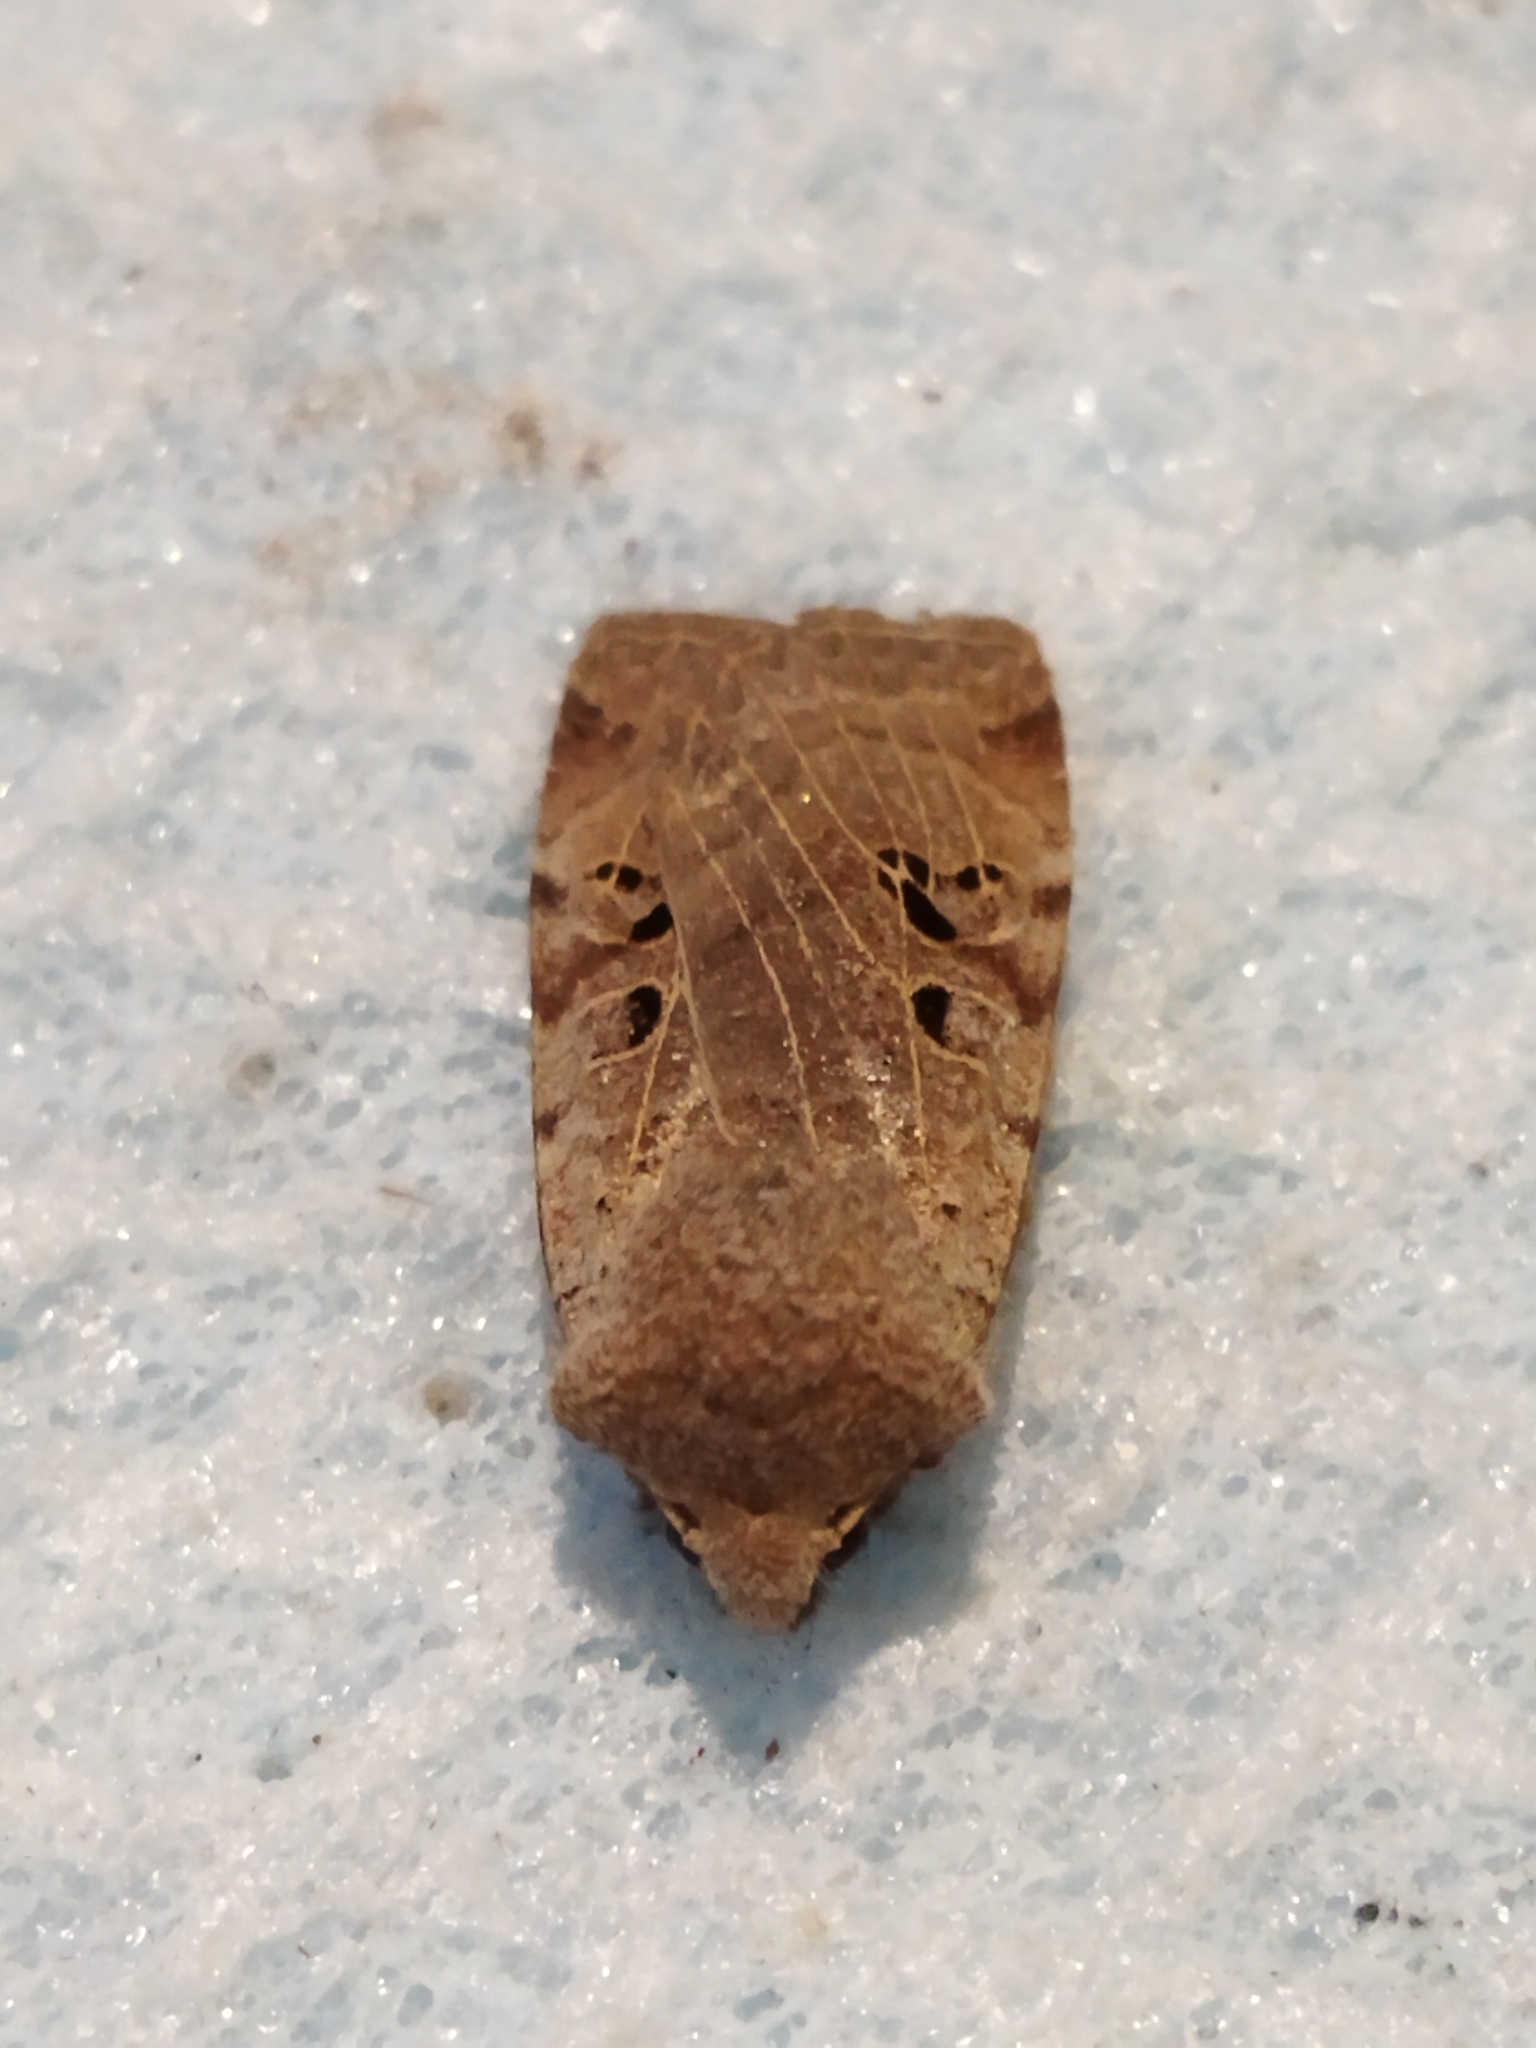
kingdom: Animalia
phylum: Arthropoda
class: Insecta
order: Lepidoptera
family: Noctuidae
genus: Conistra
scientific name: Conistra rubiginosa
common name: Black-spotted chestnut
